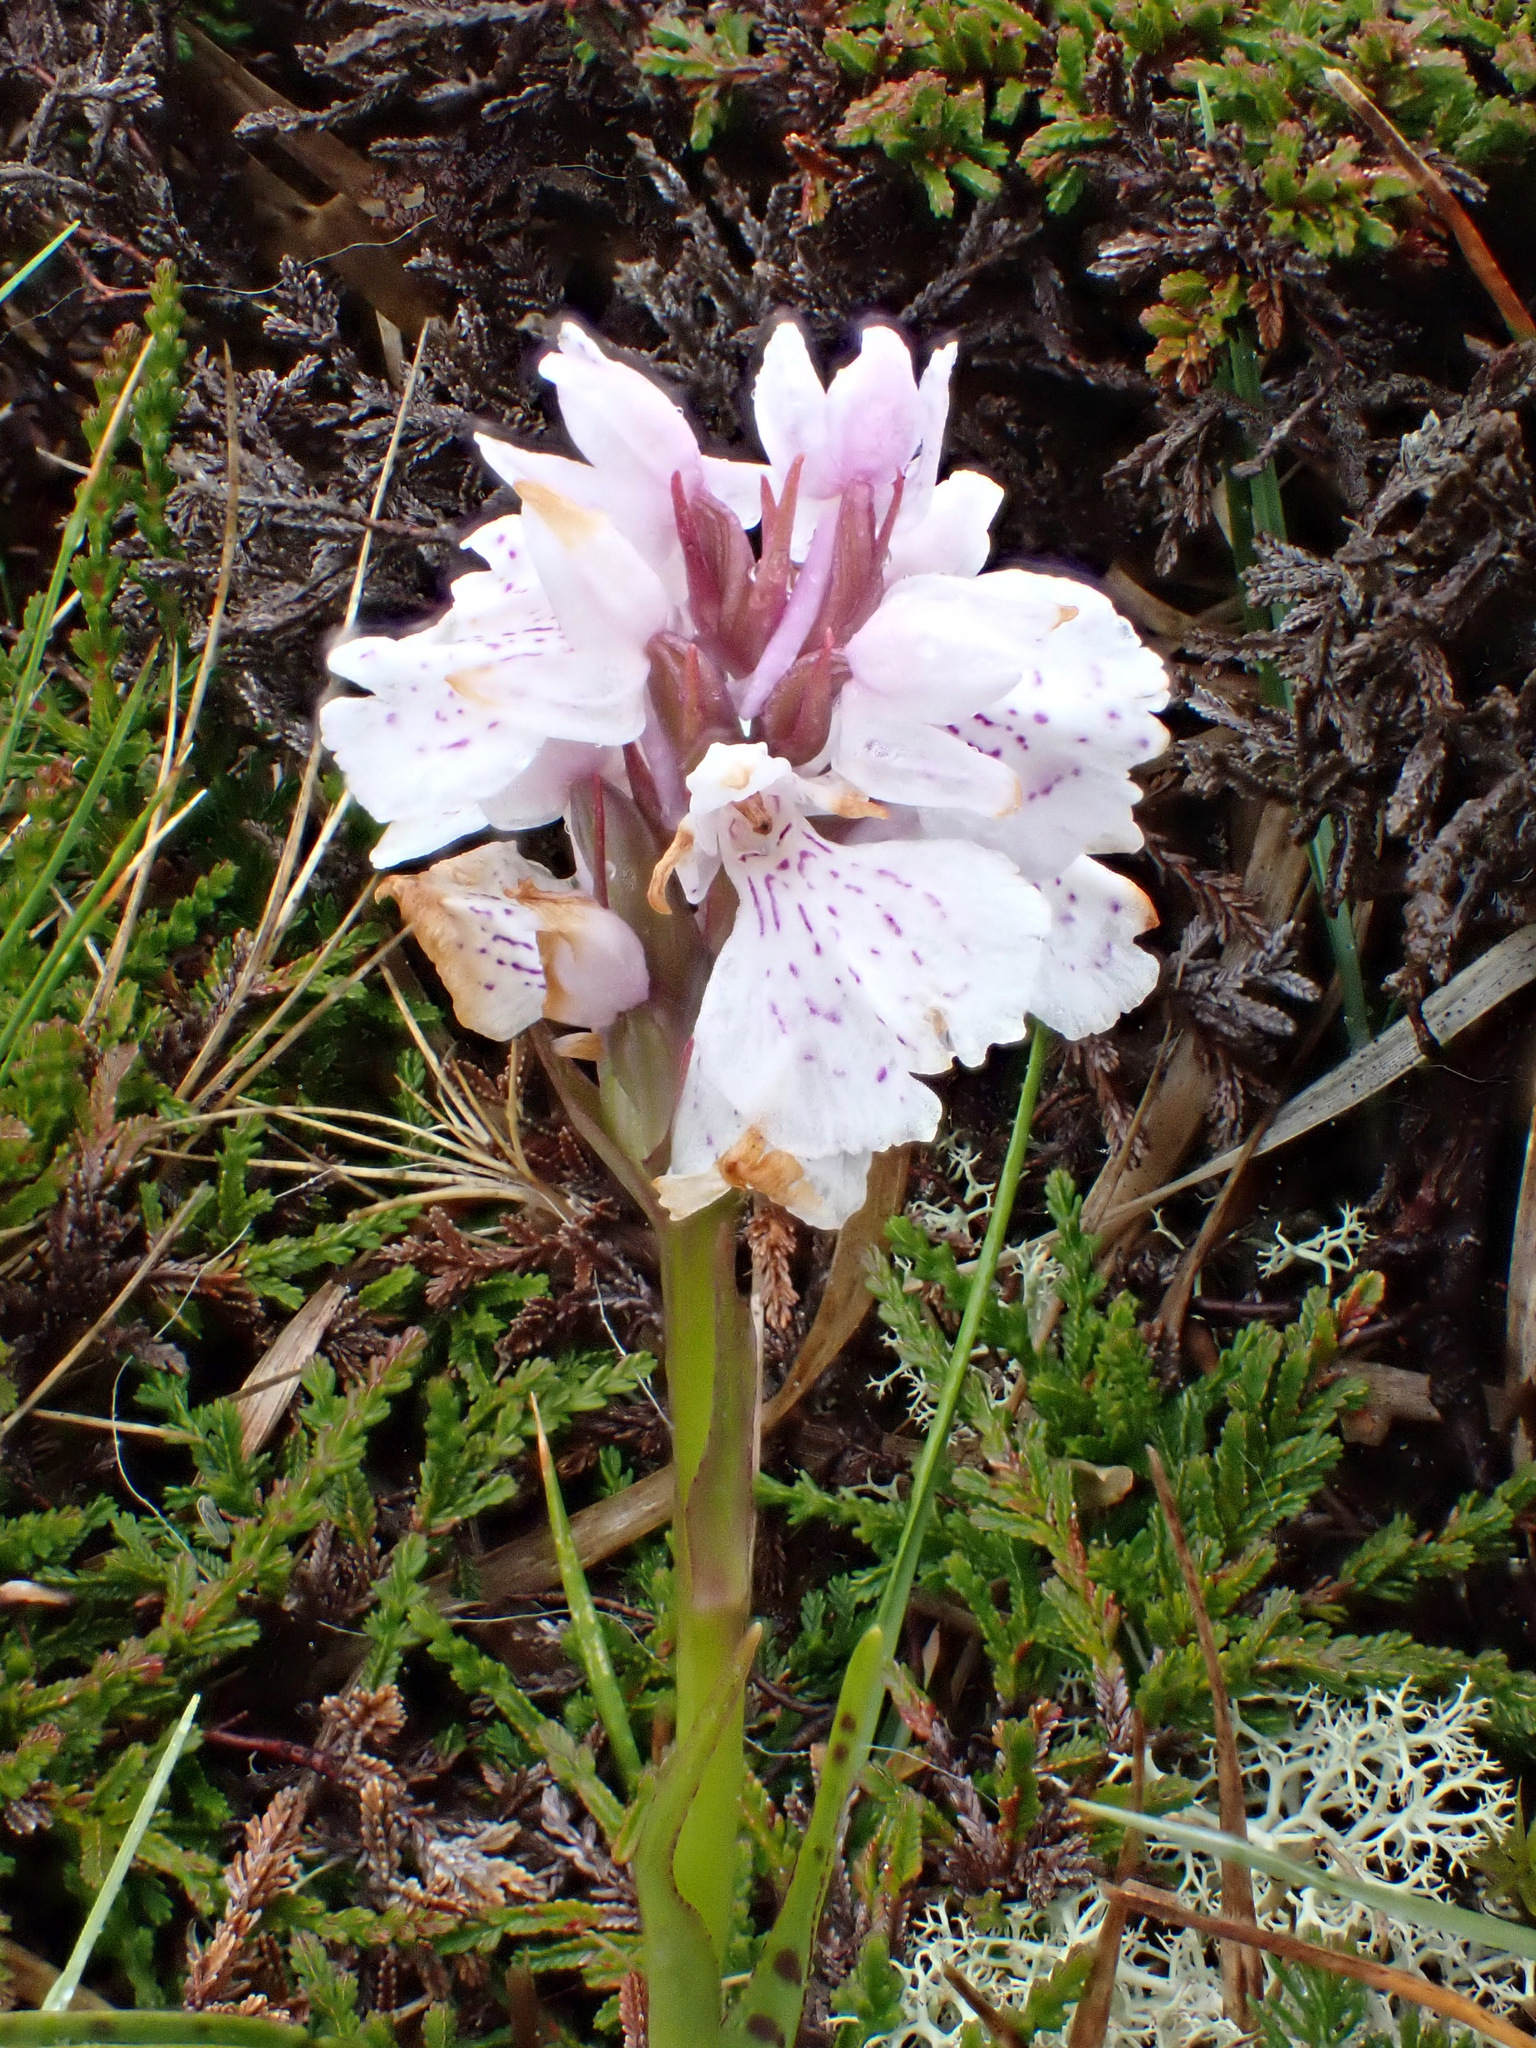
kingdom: Plantae
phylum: Tracheophyta
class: Liliopsida
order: Asparagales
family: Orchidaceae
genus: Dactylorhiza
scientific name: Dactylorhiza maculata
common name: Heath spotted-orchid
